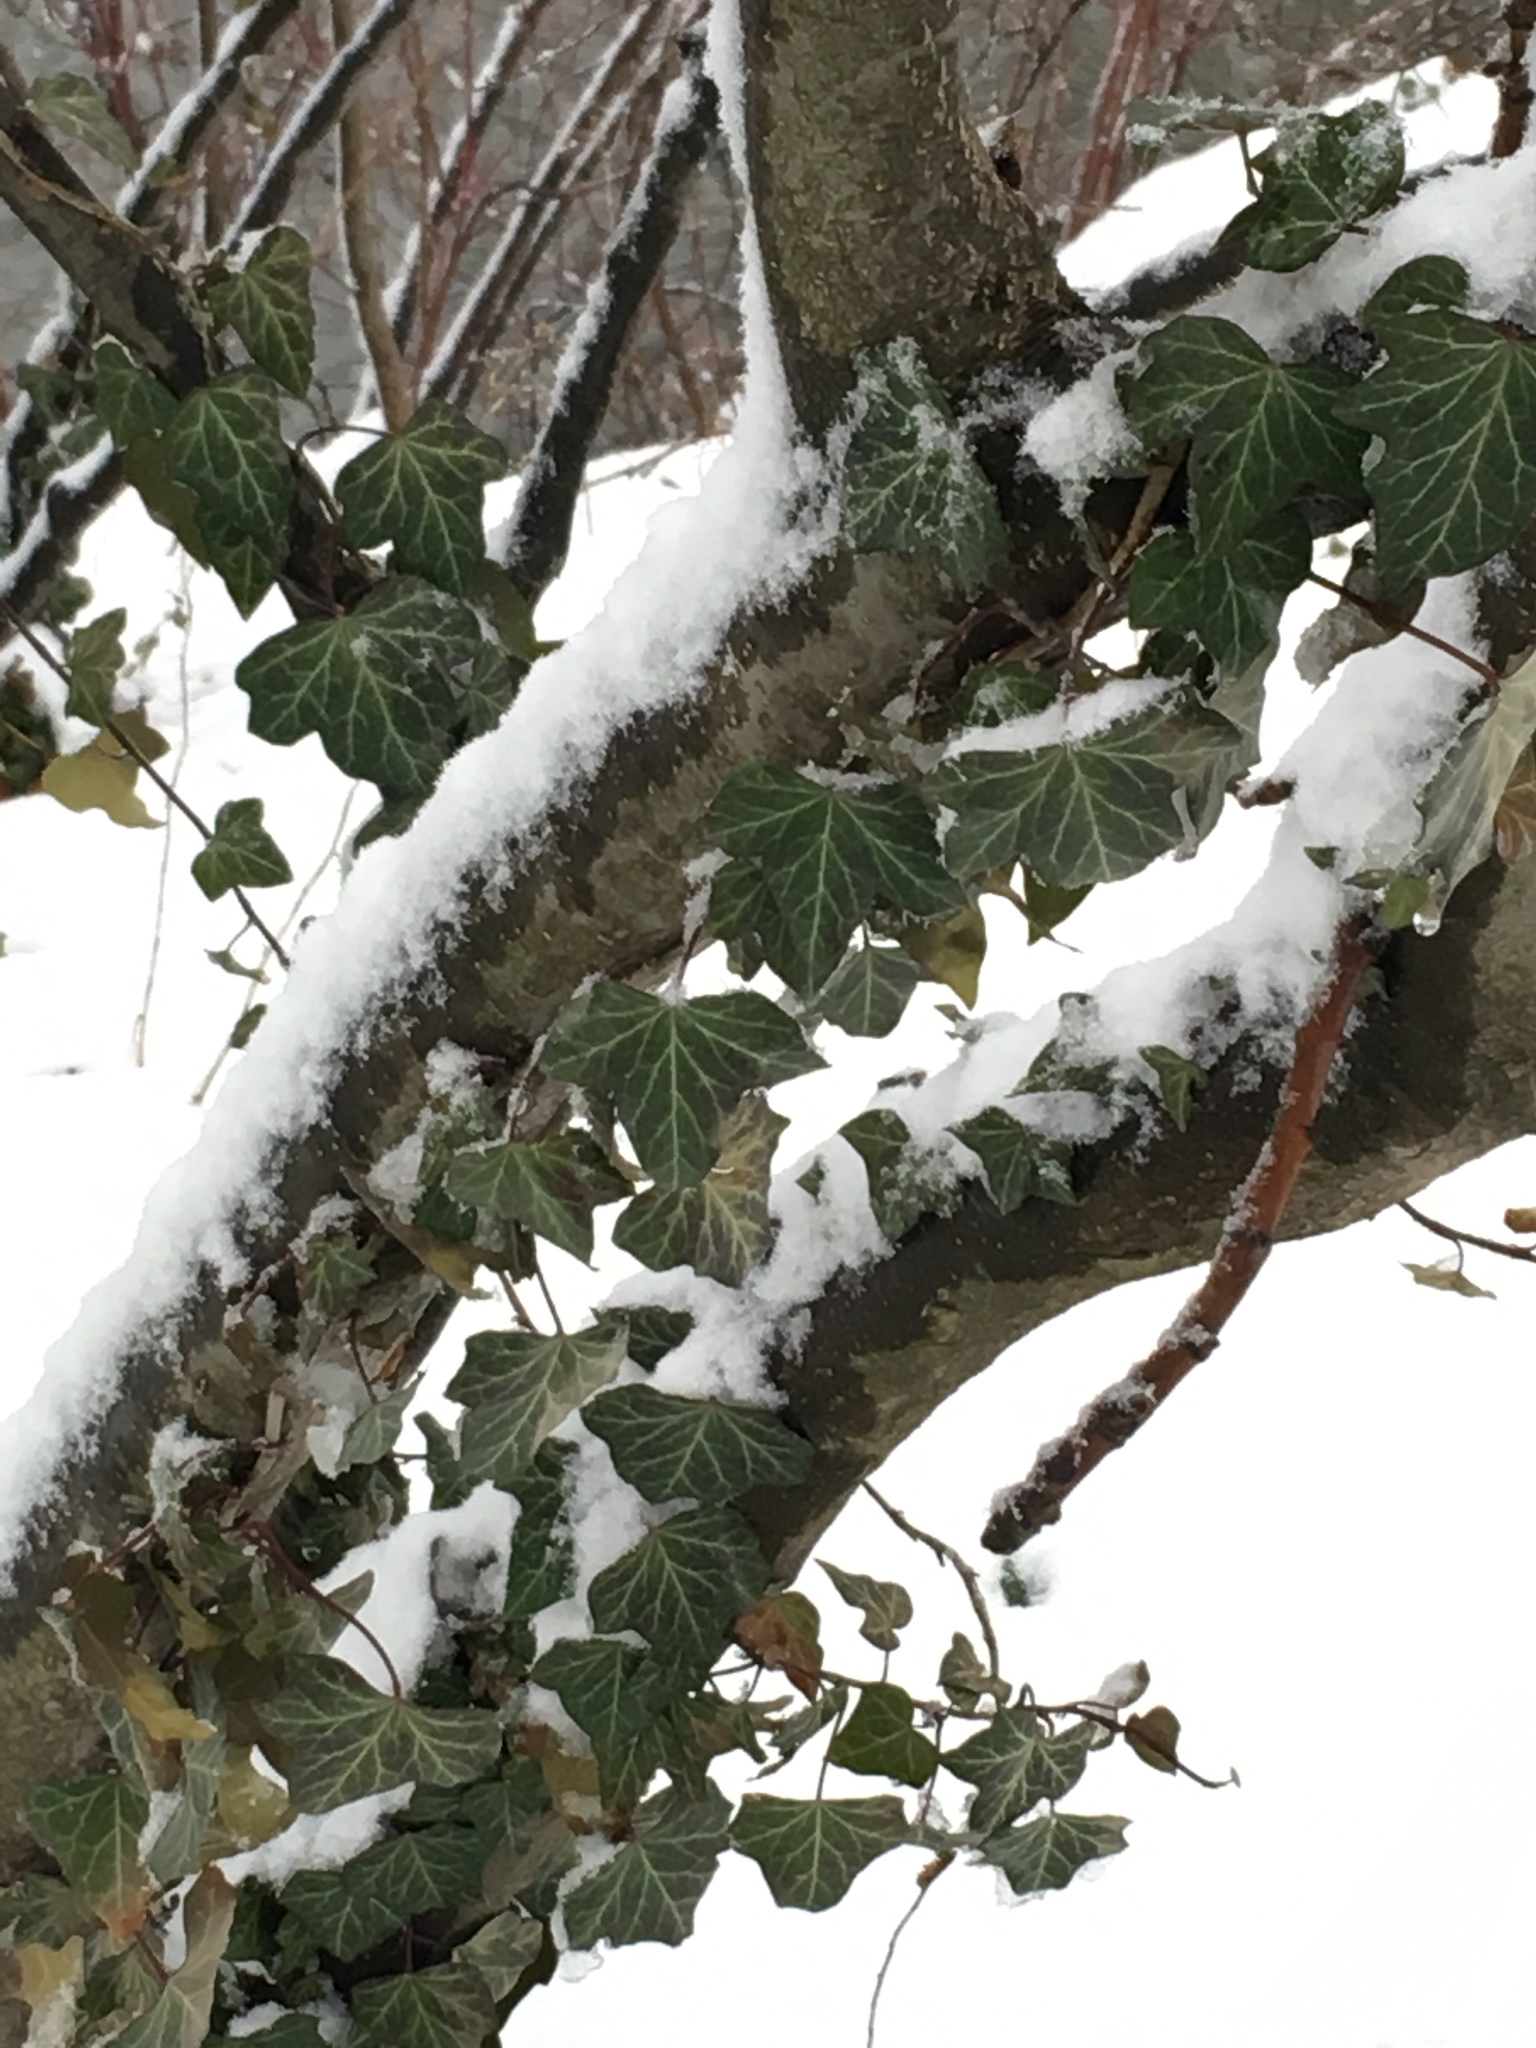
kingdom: Plantae
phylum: Tracheophyta
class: Magnoliopsida
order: Apiales
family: Araliaceae
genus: Hedera
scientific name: Hedera helix
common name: Ivy
